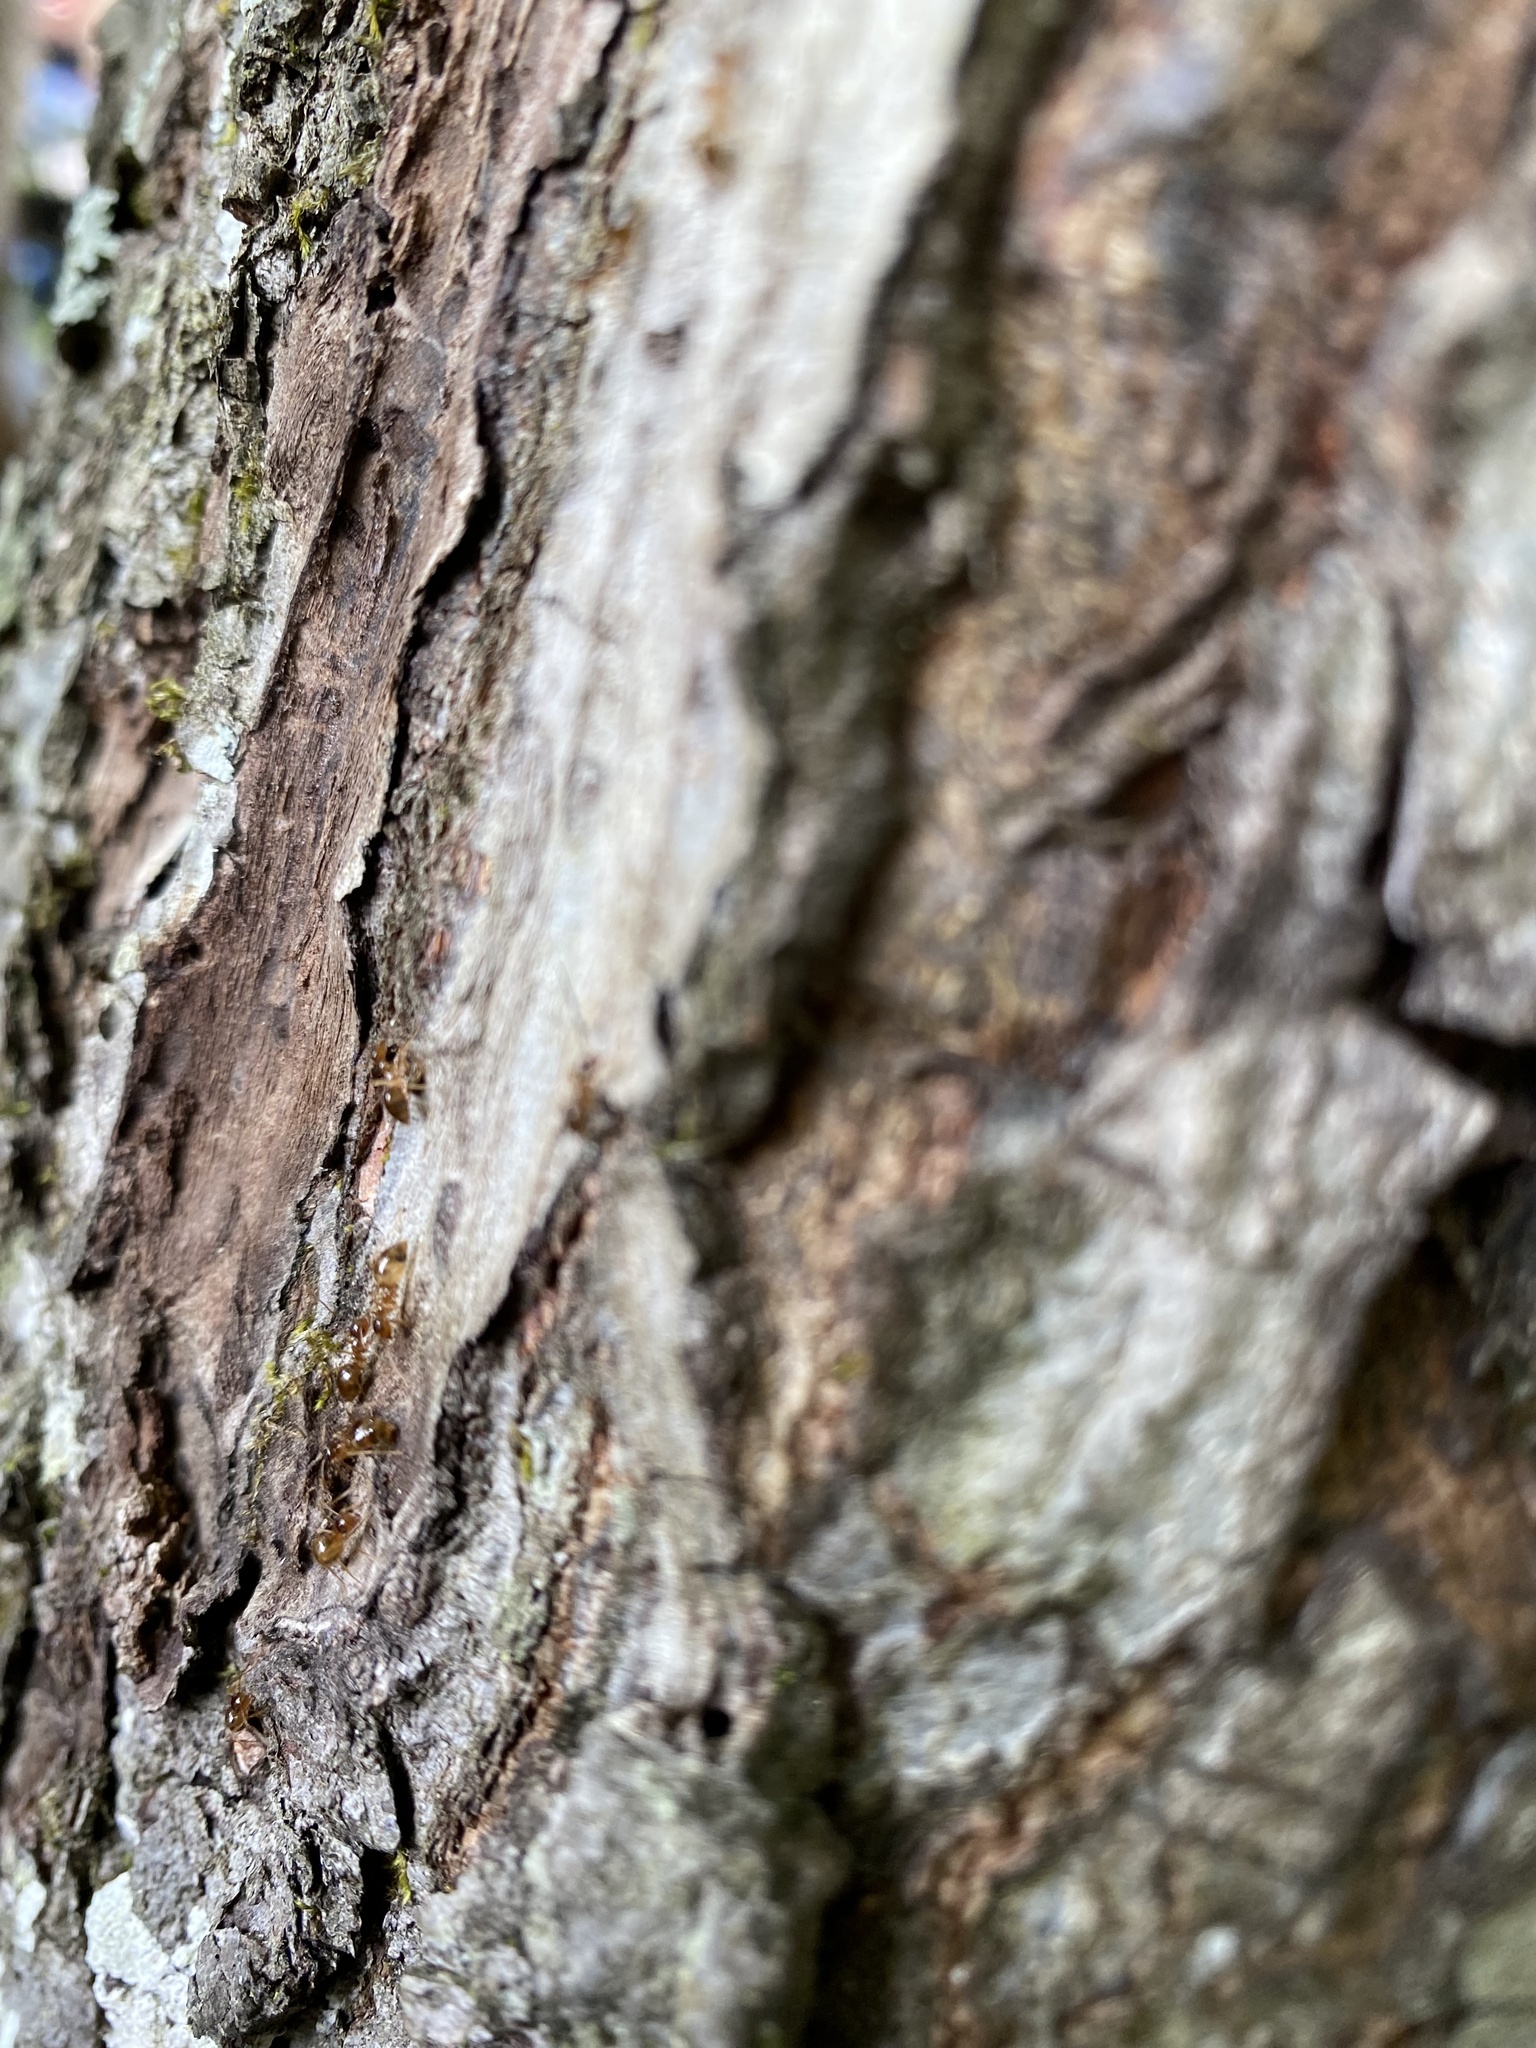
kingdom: Animalia
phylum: Arthropoda
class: Insecta
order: Hymenoptera
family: Formicidae
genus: Prenolepis
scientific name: Prenolepis imparis
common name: Small honey ant
